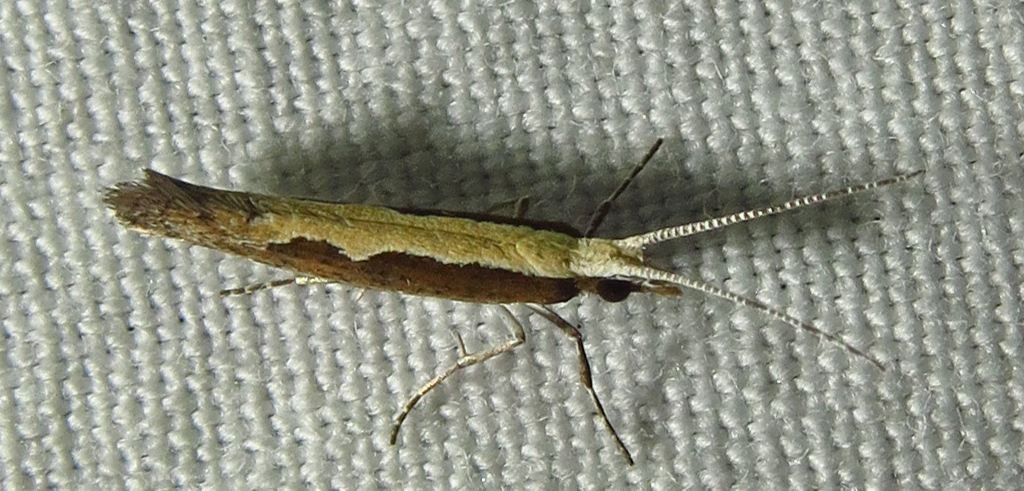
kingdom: Animalia
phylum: Arthropoda
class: Insecta
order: Lepidoptera
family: Plutellidae
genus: Plutella
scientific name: Plutella xylostella
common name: Diamond-back moth
